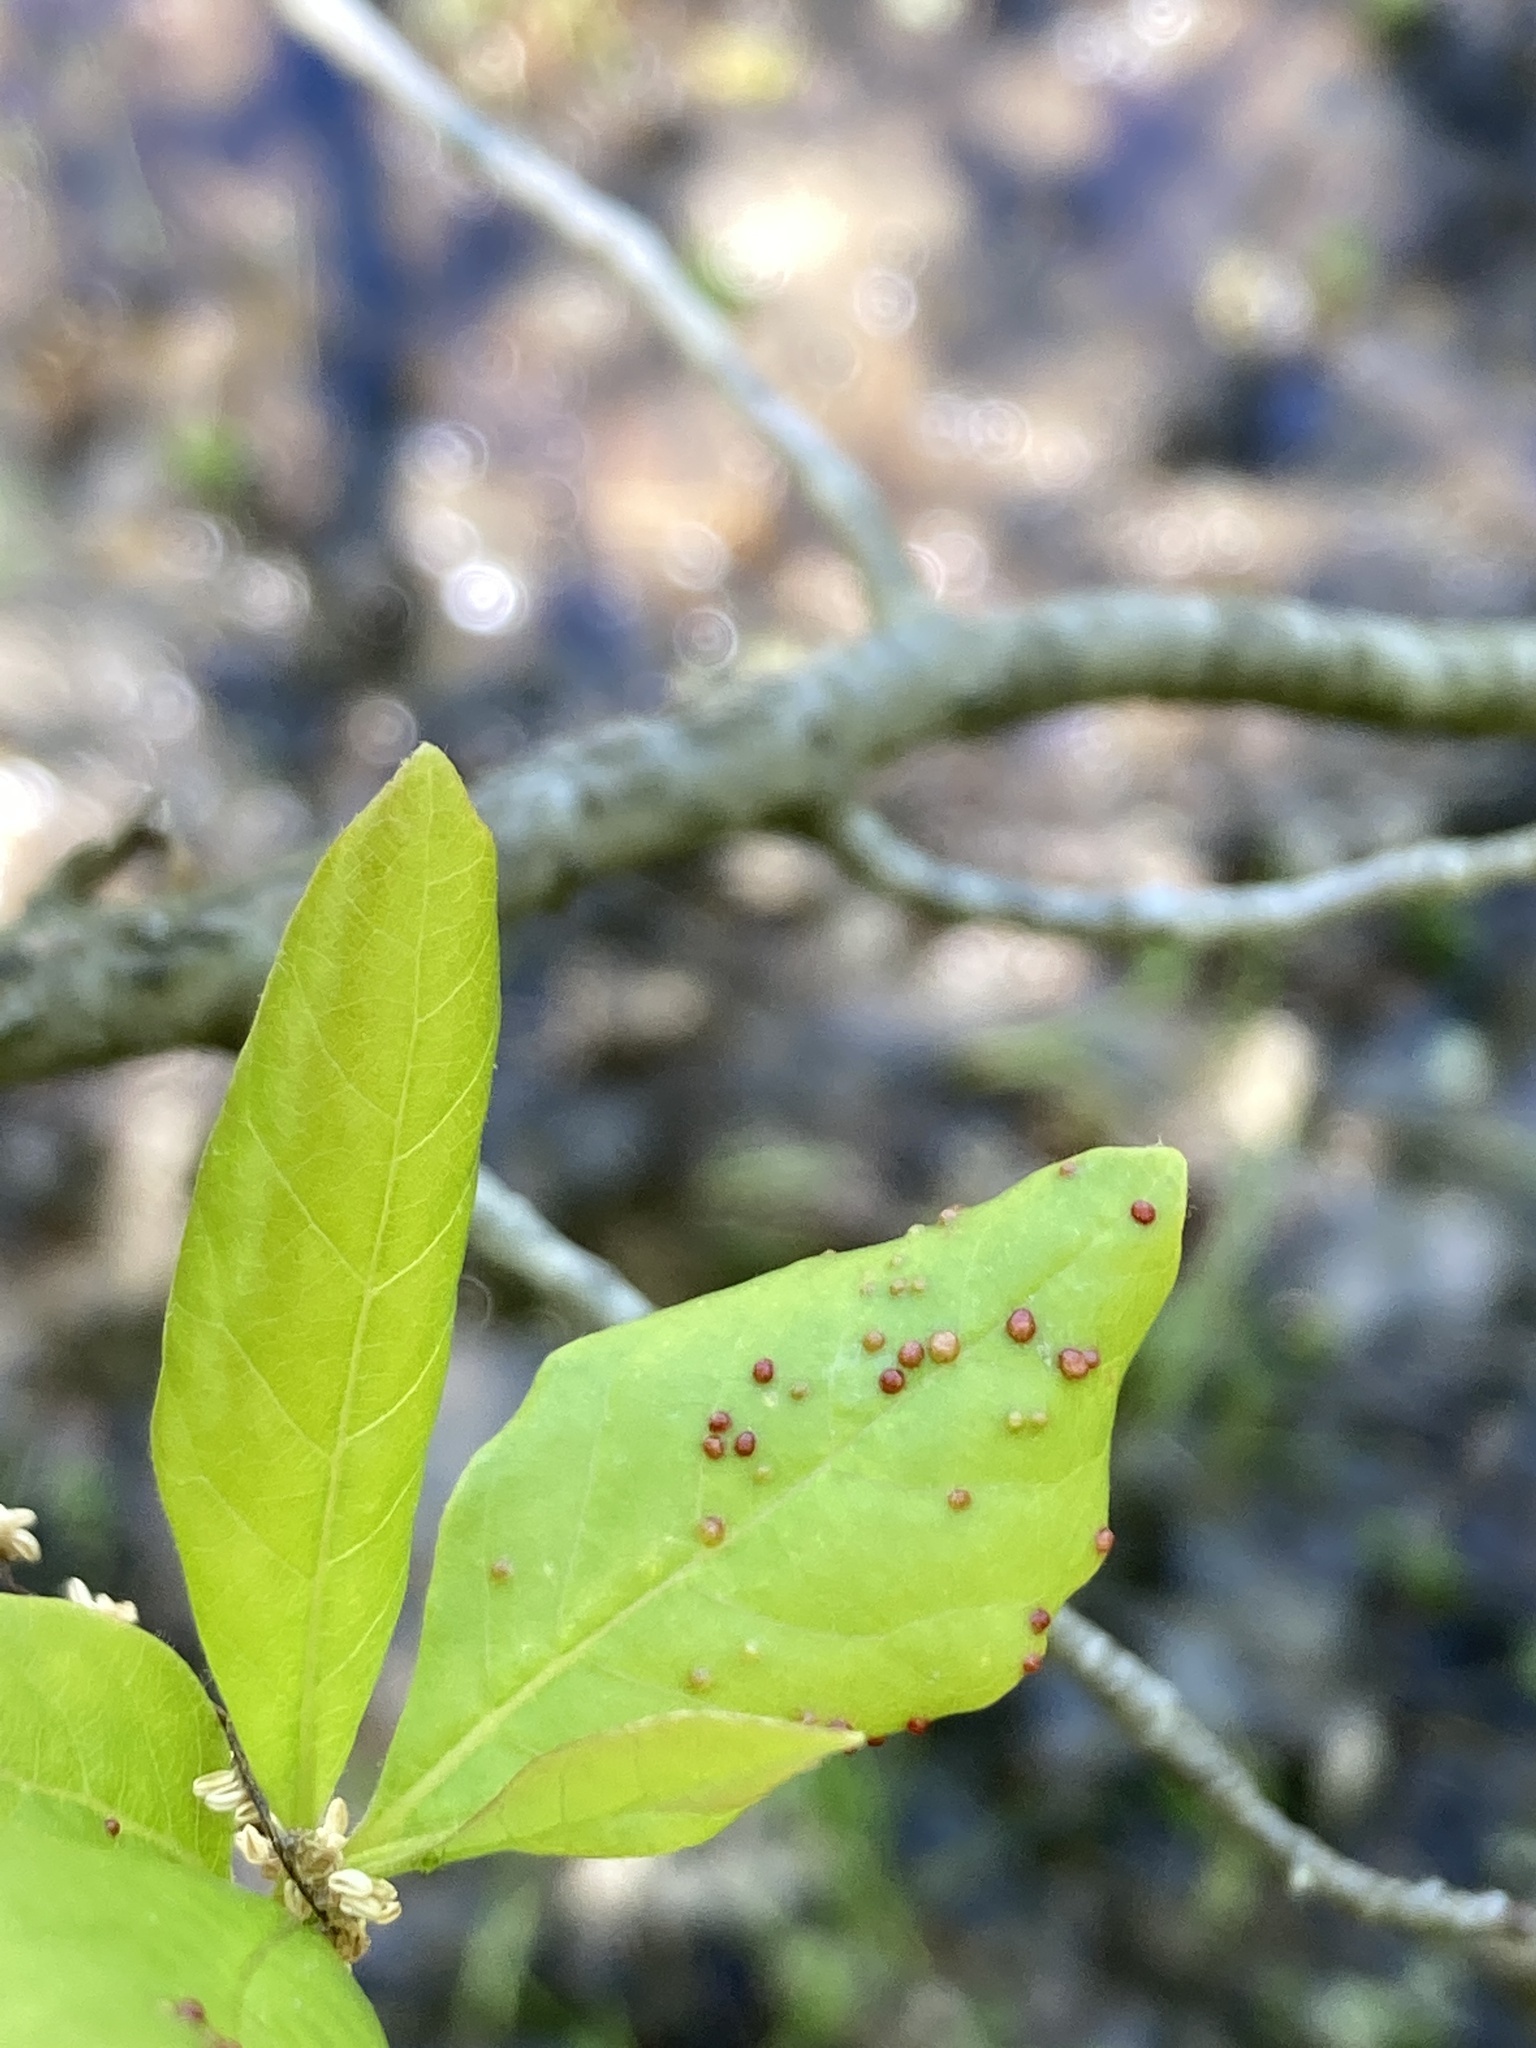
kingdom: Animalia
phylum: Arthropoda
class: Arachnida
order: Trombidiformes
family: Eriophyidae
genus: Aceria
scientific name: Aceria
